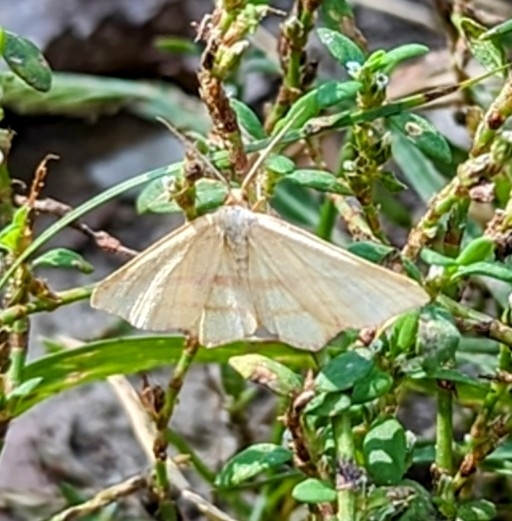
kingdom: Animalia
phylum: Arthropoda
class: Insecta
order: Lepidoptera
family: Geometridae
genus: Haematopis
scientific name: Haematopis grataria
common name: Chickweed geometer
